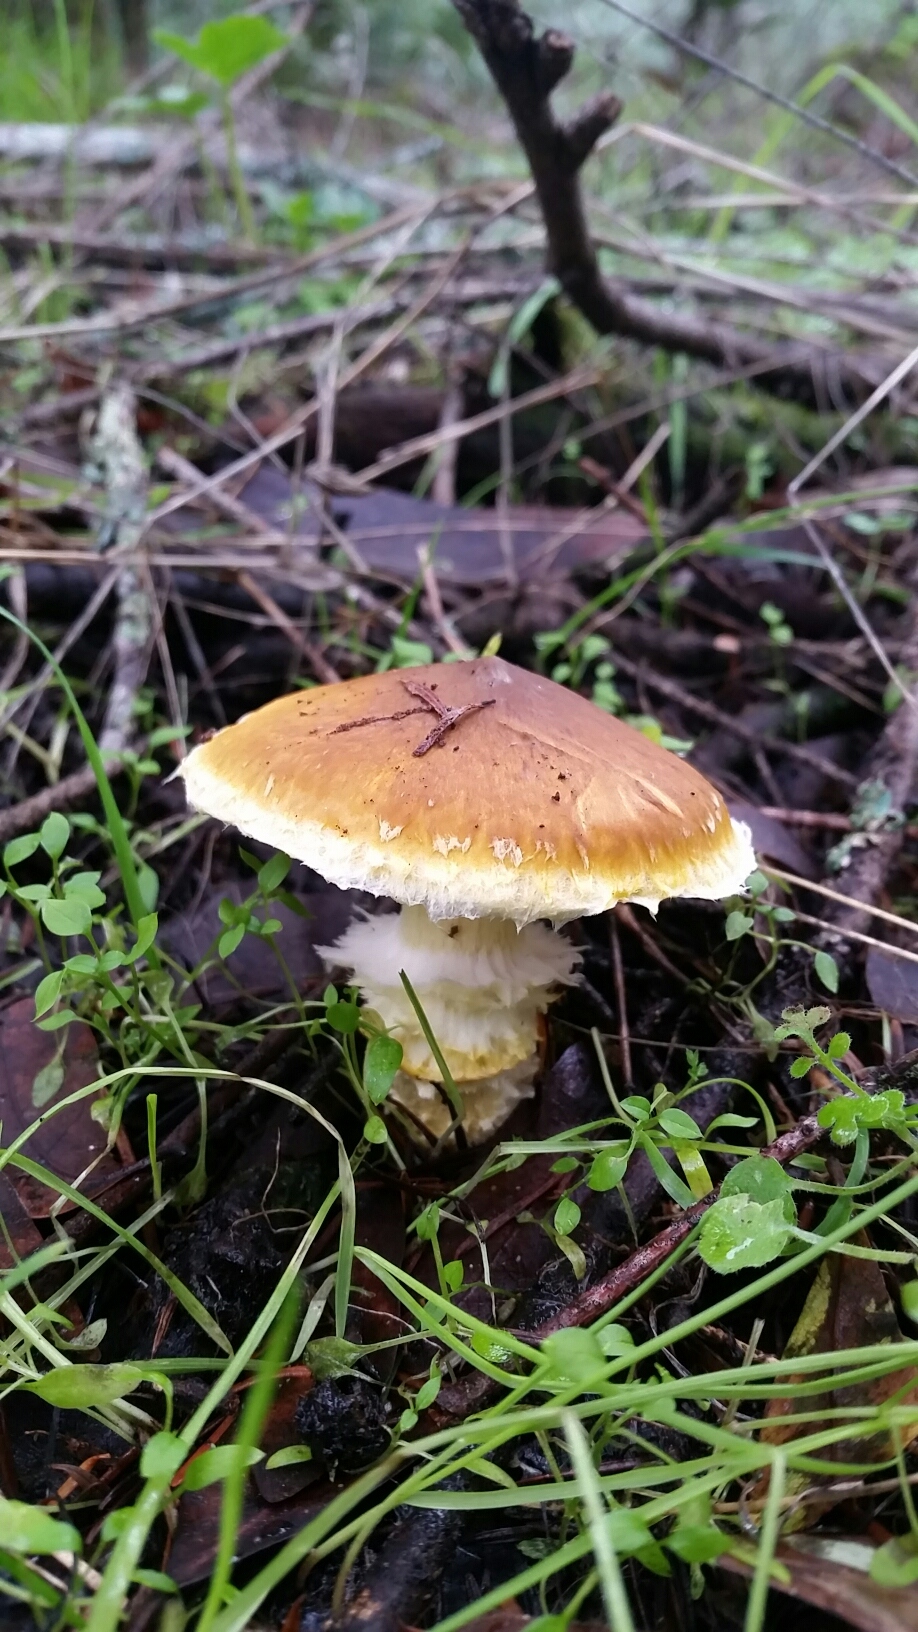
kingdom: Fungi
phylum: Basidiomycota
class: Agaricomycetes
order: Agaricales
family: Agaricaceae
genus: Floccularia
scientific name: Floccularia albolanaripes
